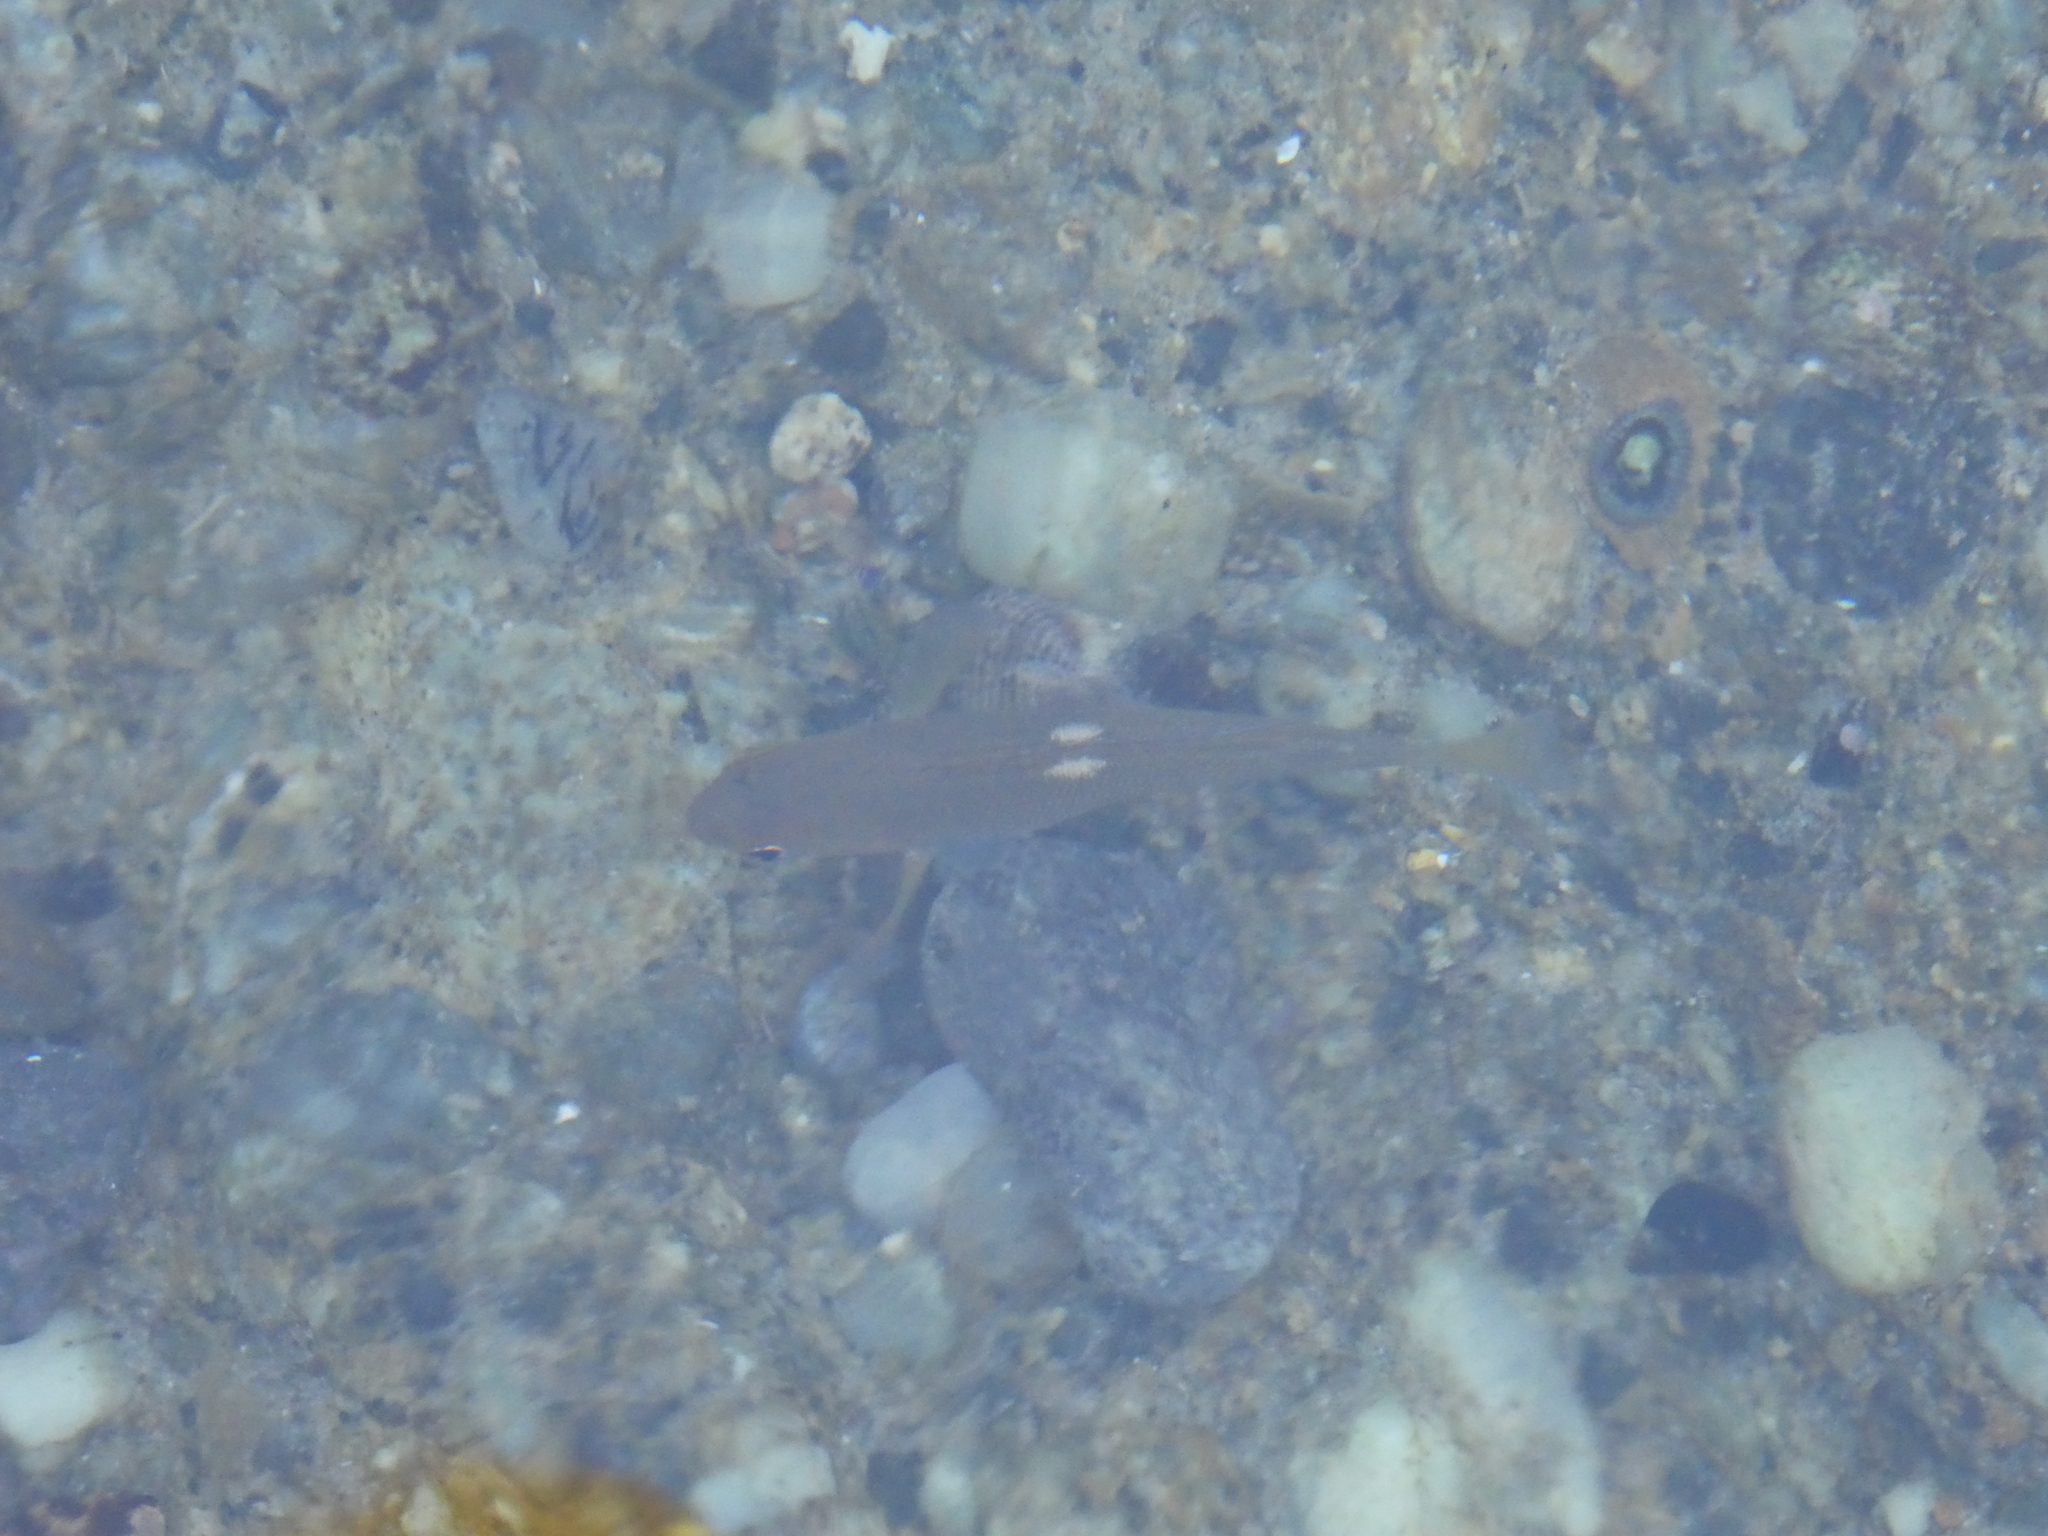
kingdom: Animalia
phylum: Chordata
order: Perciformes
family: Kyphosidae
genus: Girella
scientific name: Girella nigricans
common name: Opaleye
